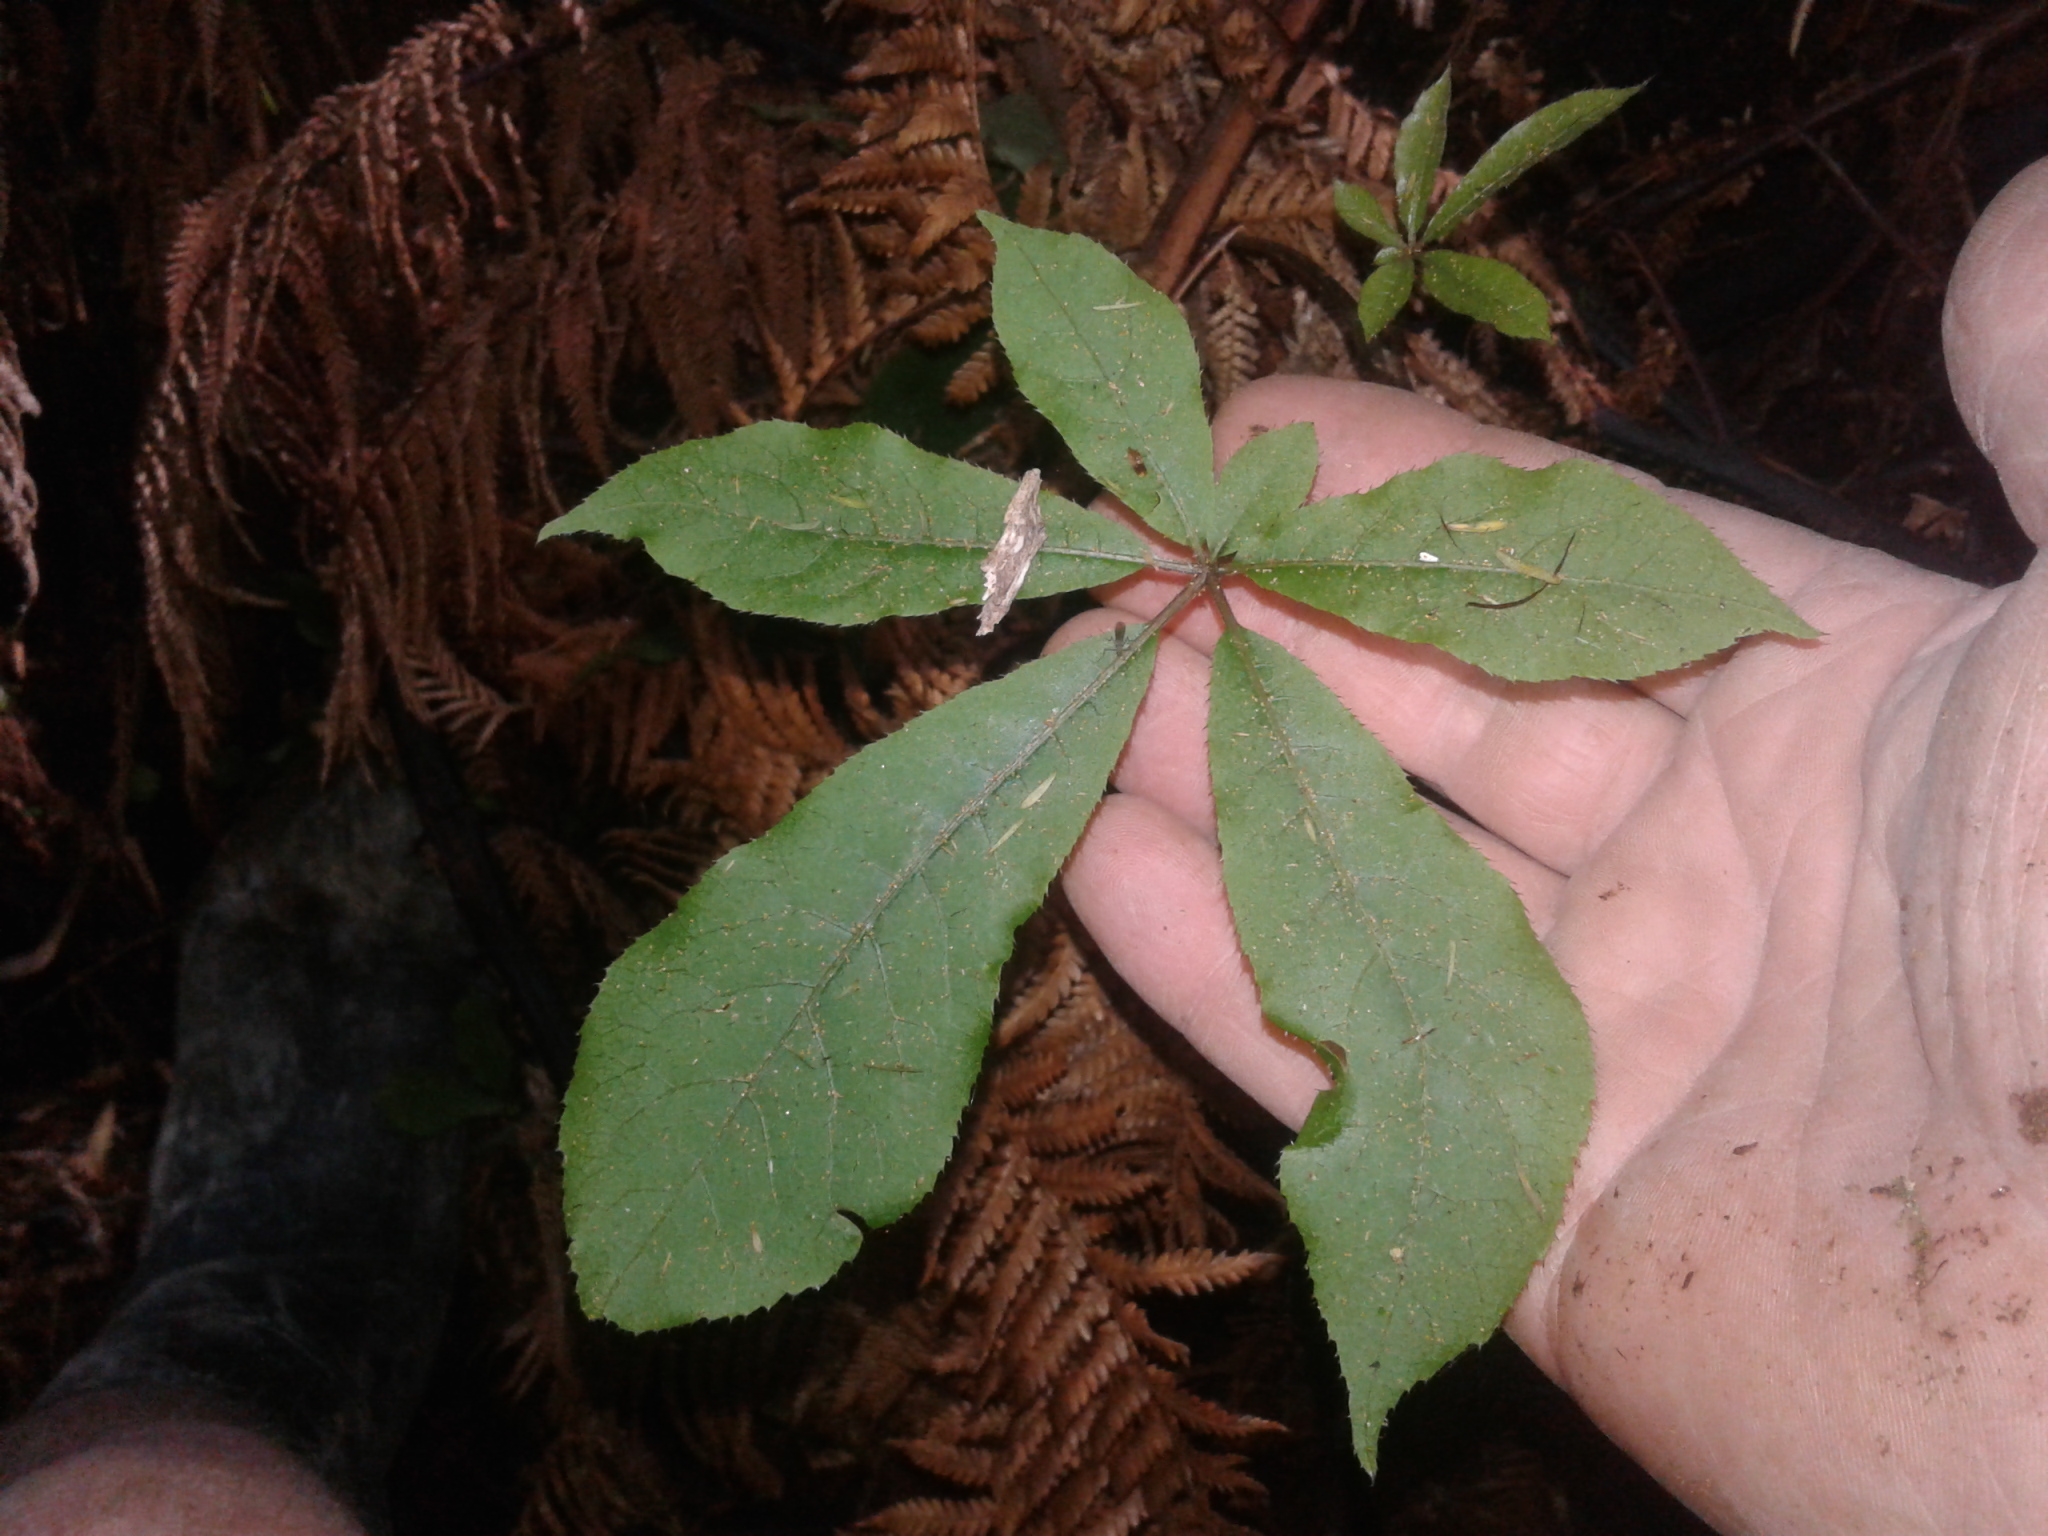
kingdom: Plantae
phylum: Tracheophyta
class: Magnoliopsida
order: Apiales
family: Araliaceae
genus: Schefflera
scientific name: Schefflera digitata
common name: Pate
